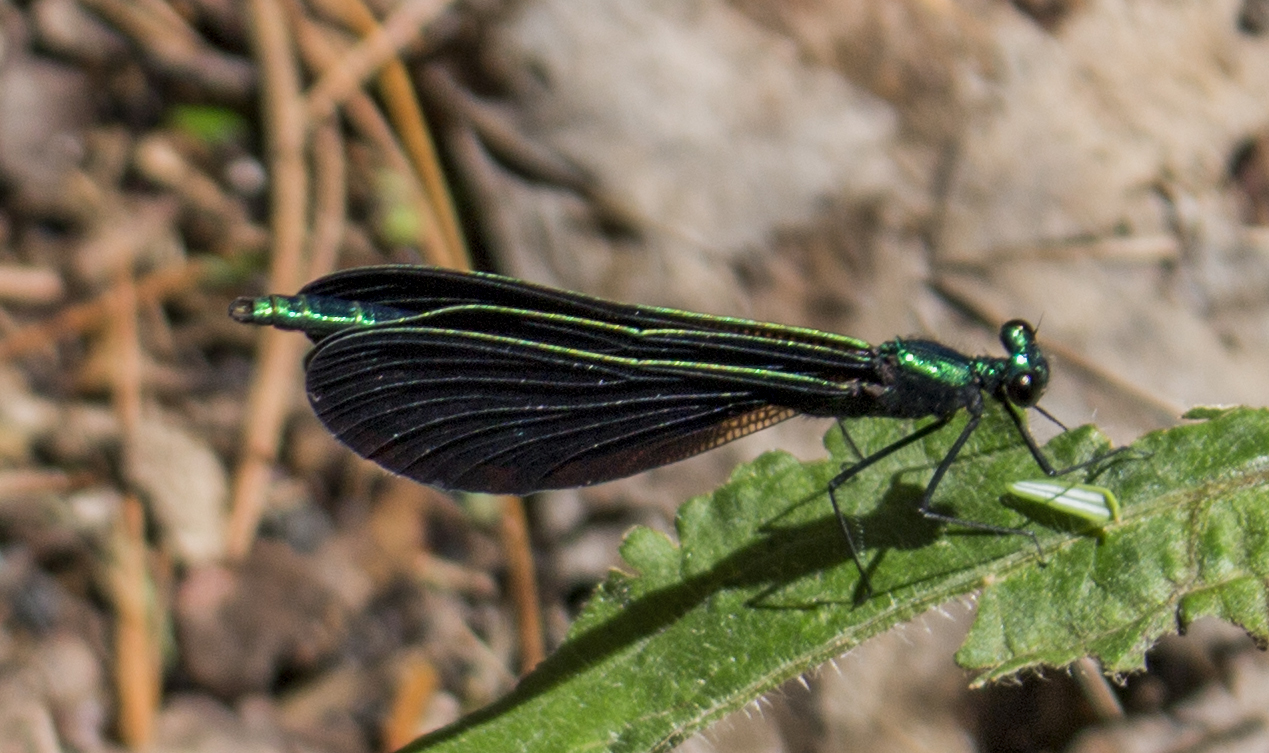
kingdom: Animalia
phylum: Arthropoda
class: Insecta
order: Odonata
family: Calopterygidae
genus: Calopteryx
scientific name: Calopteryx maculata
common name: Ebony jewelwing
